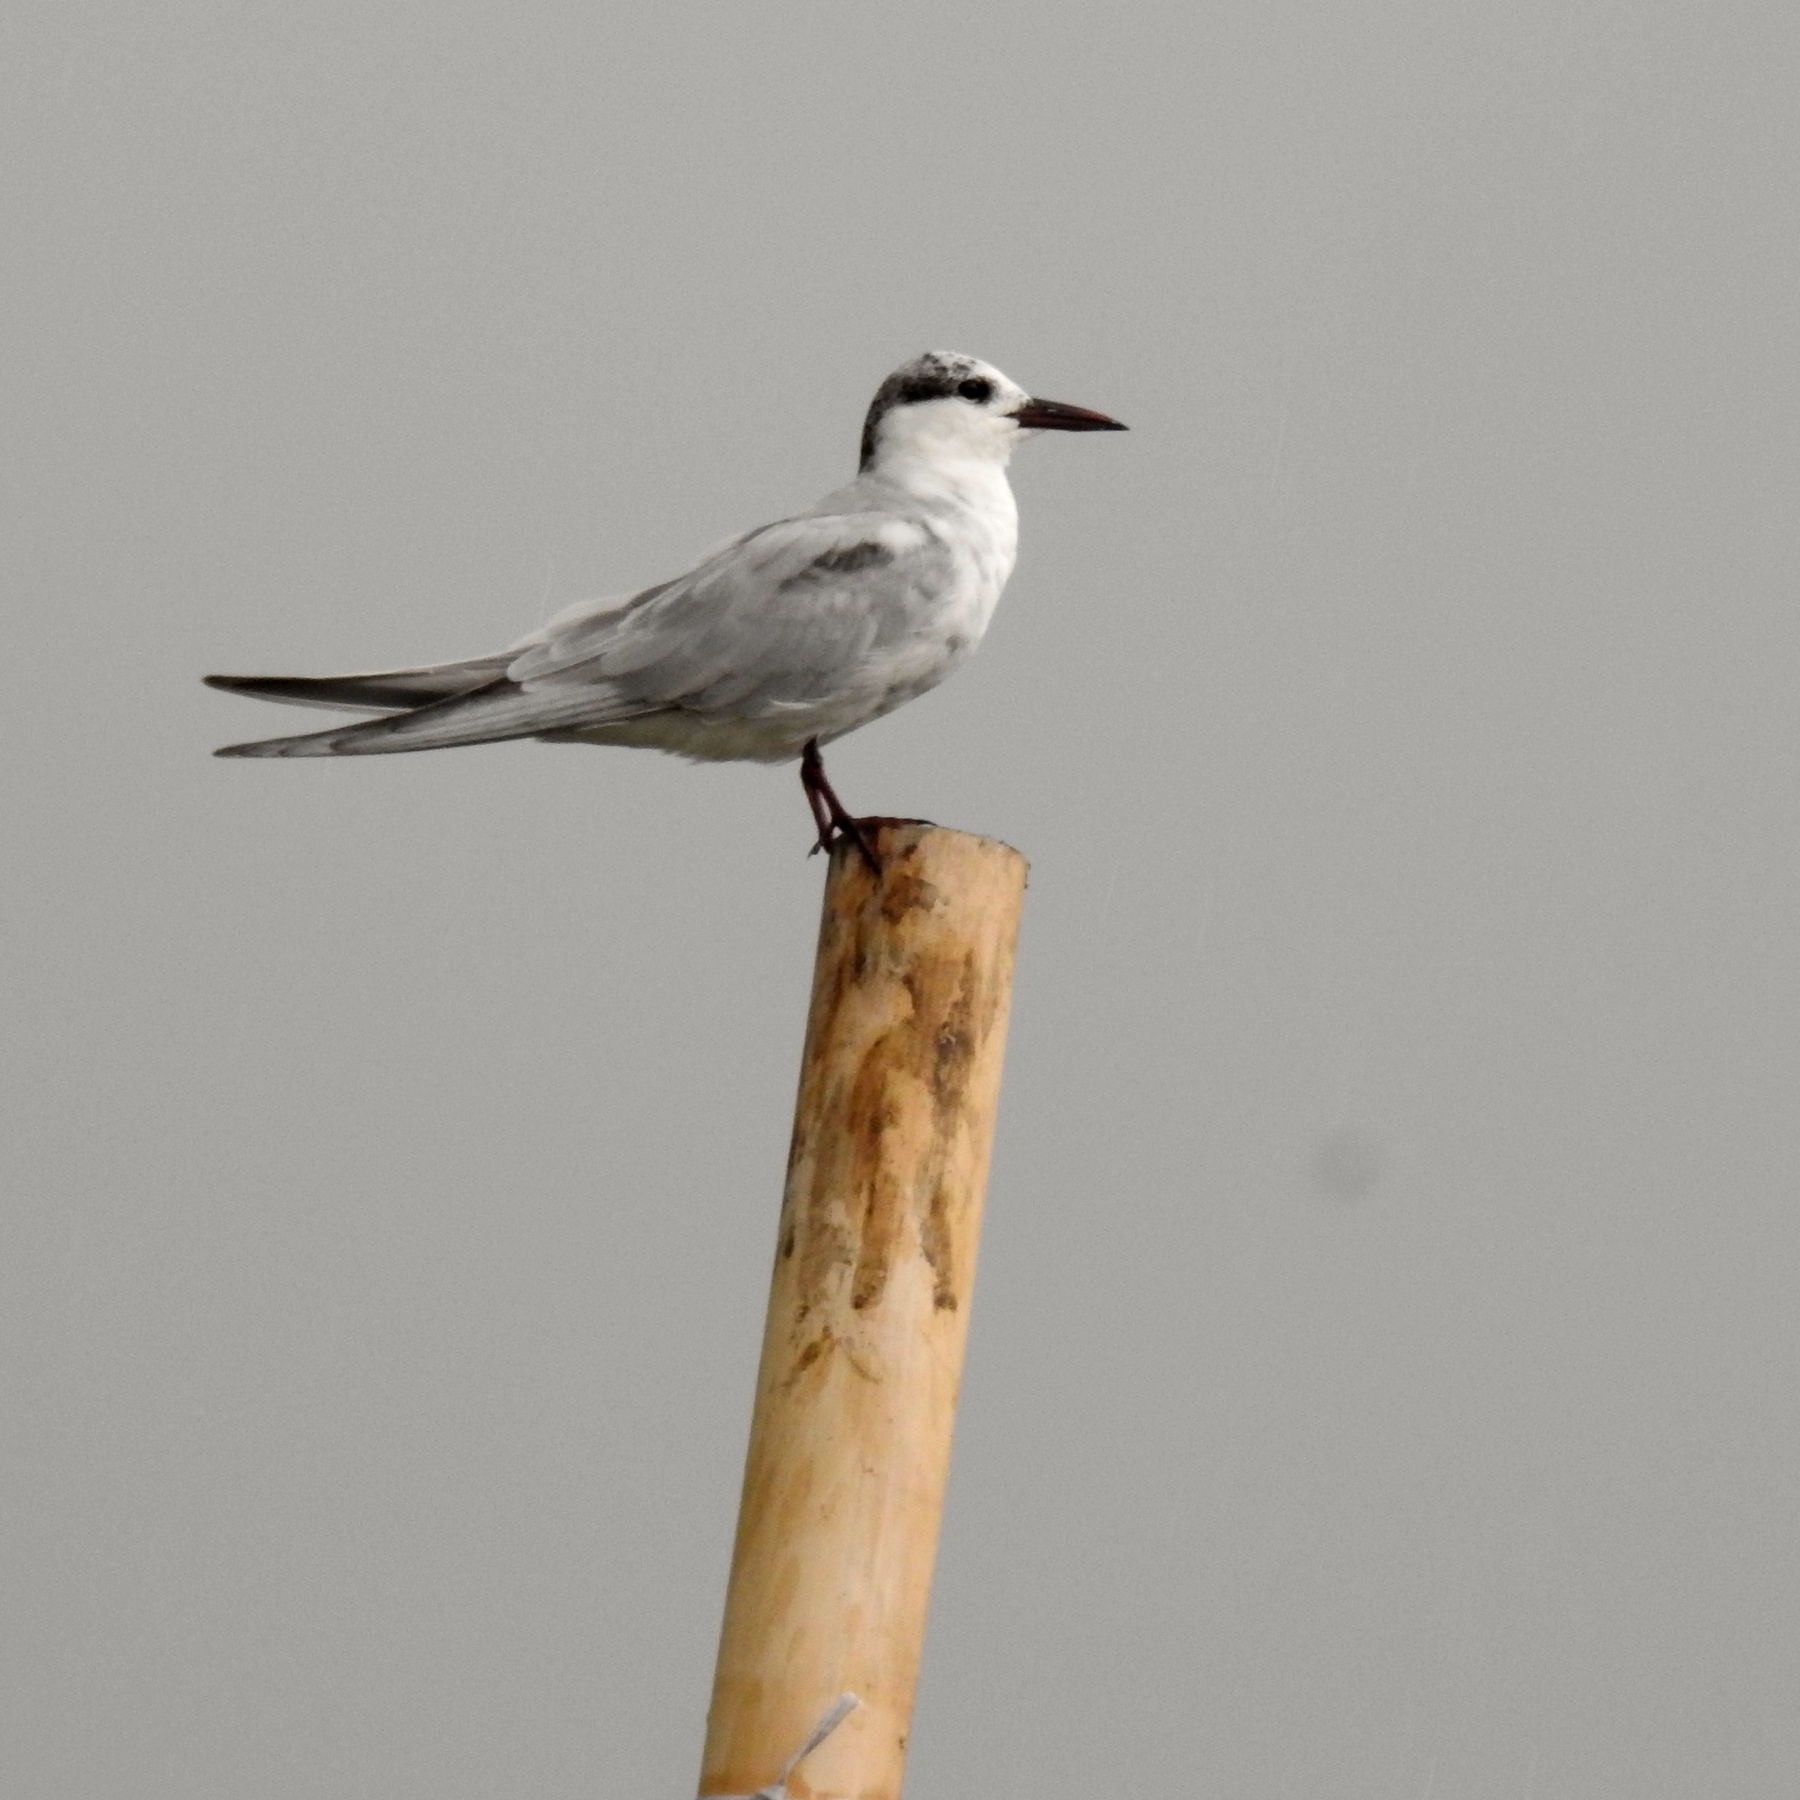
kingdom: Animalia
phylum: Chordata
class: Aves
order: Charadriiformes
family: Laridae
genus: Chlidonias
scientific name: Chlidonias hybrida
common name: Whiskered tern
